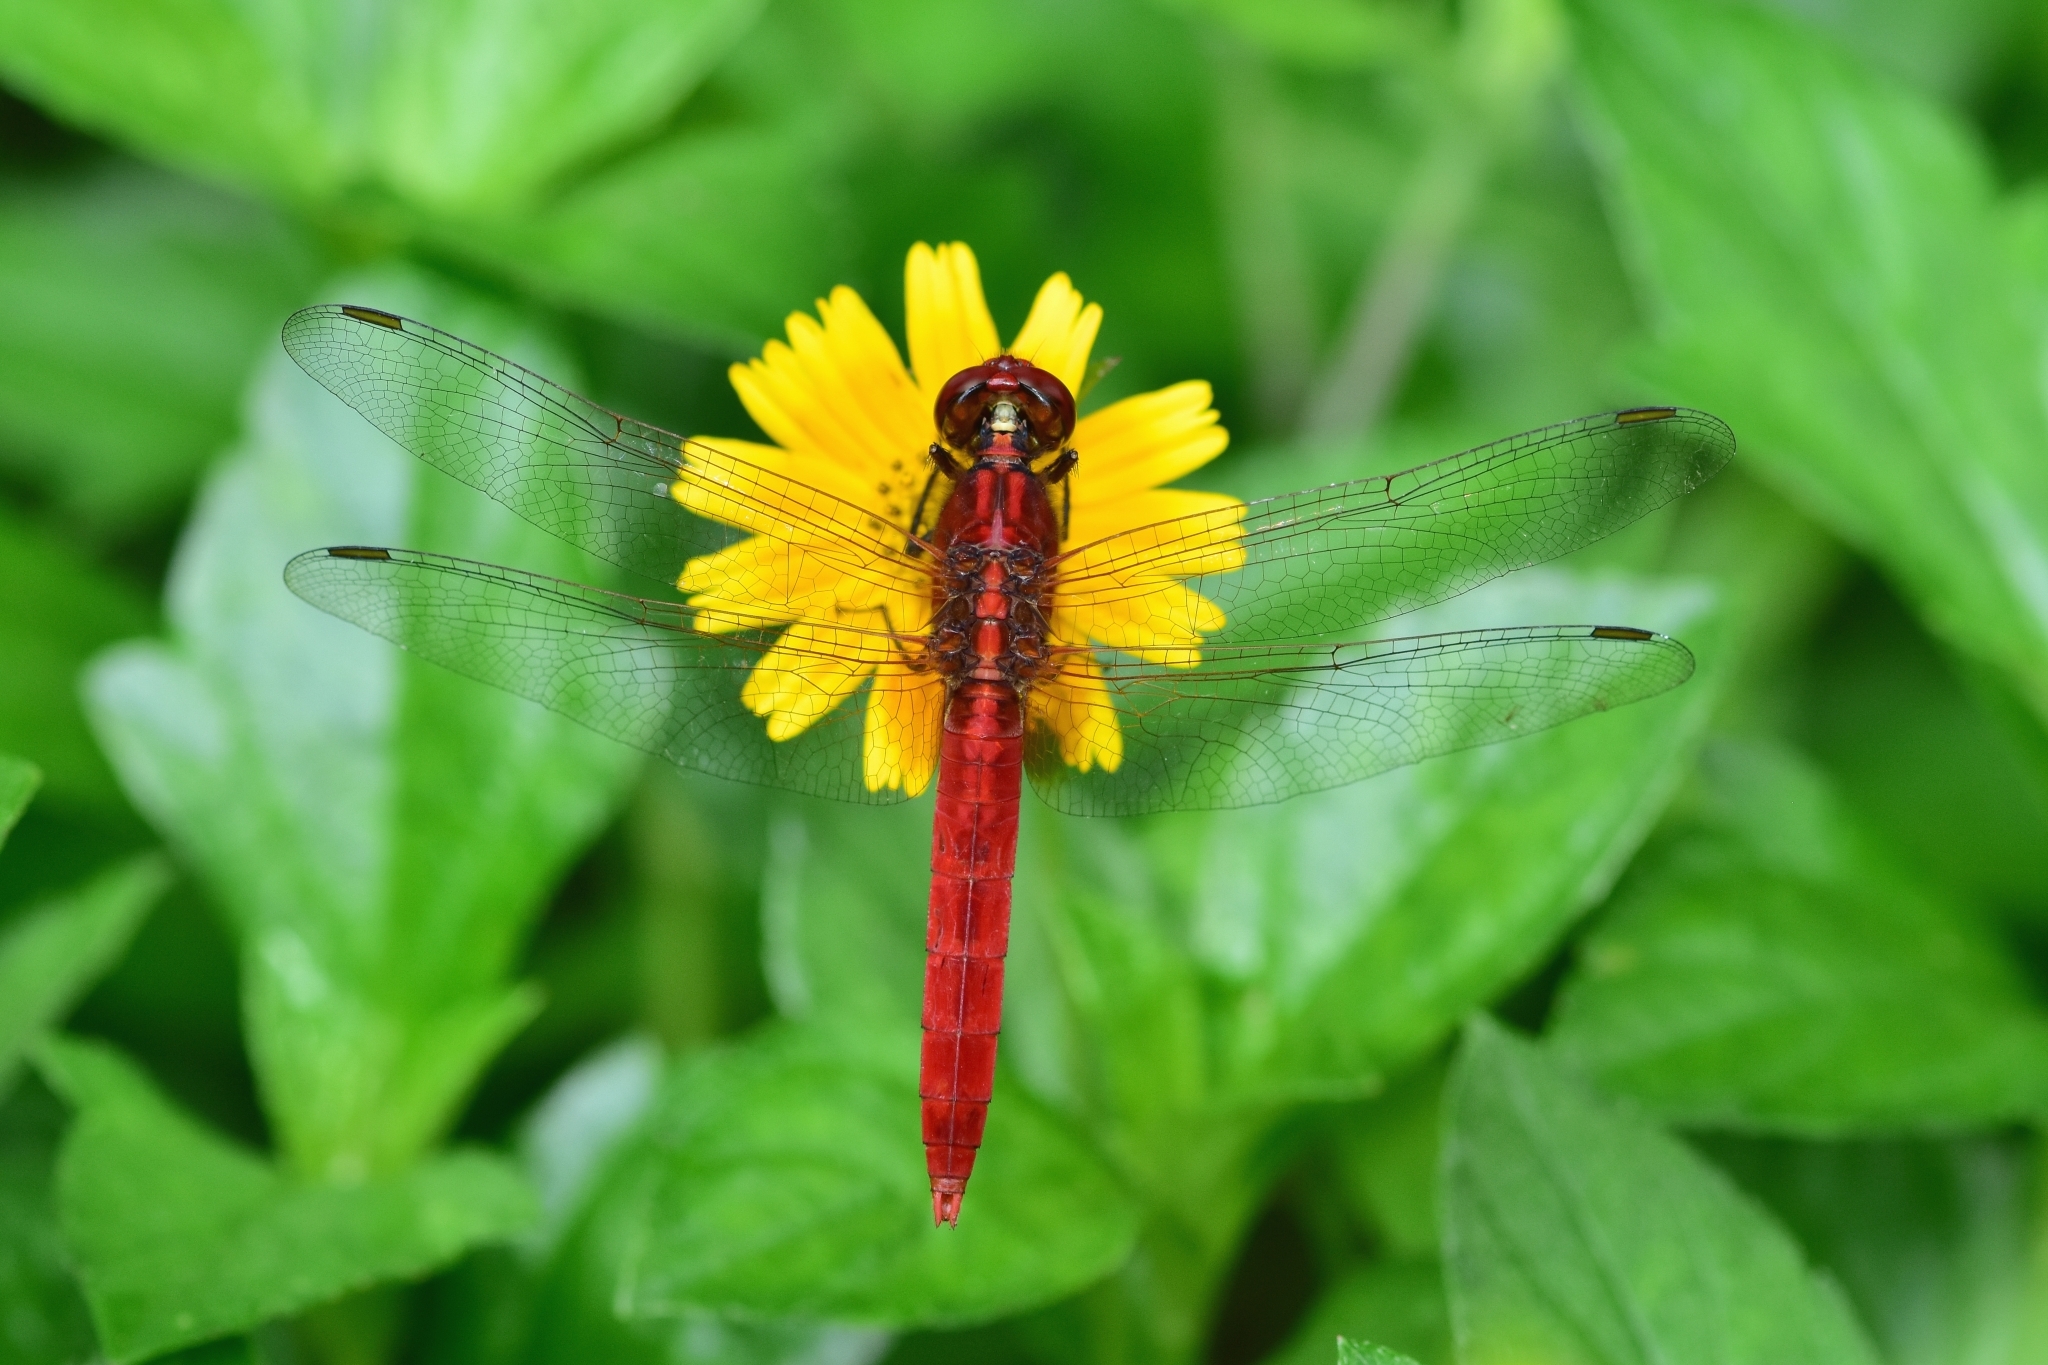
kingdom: Animalia
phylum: Arthropoda
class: Insecta
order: Odonata
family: Libellulidae
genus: Rhodothemis
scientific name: Rhodothemis rufa
